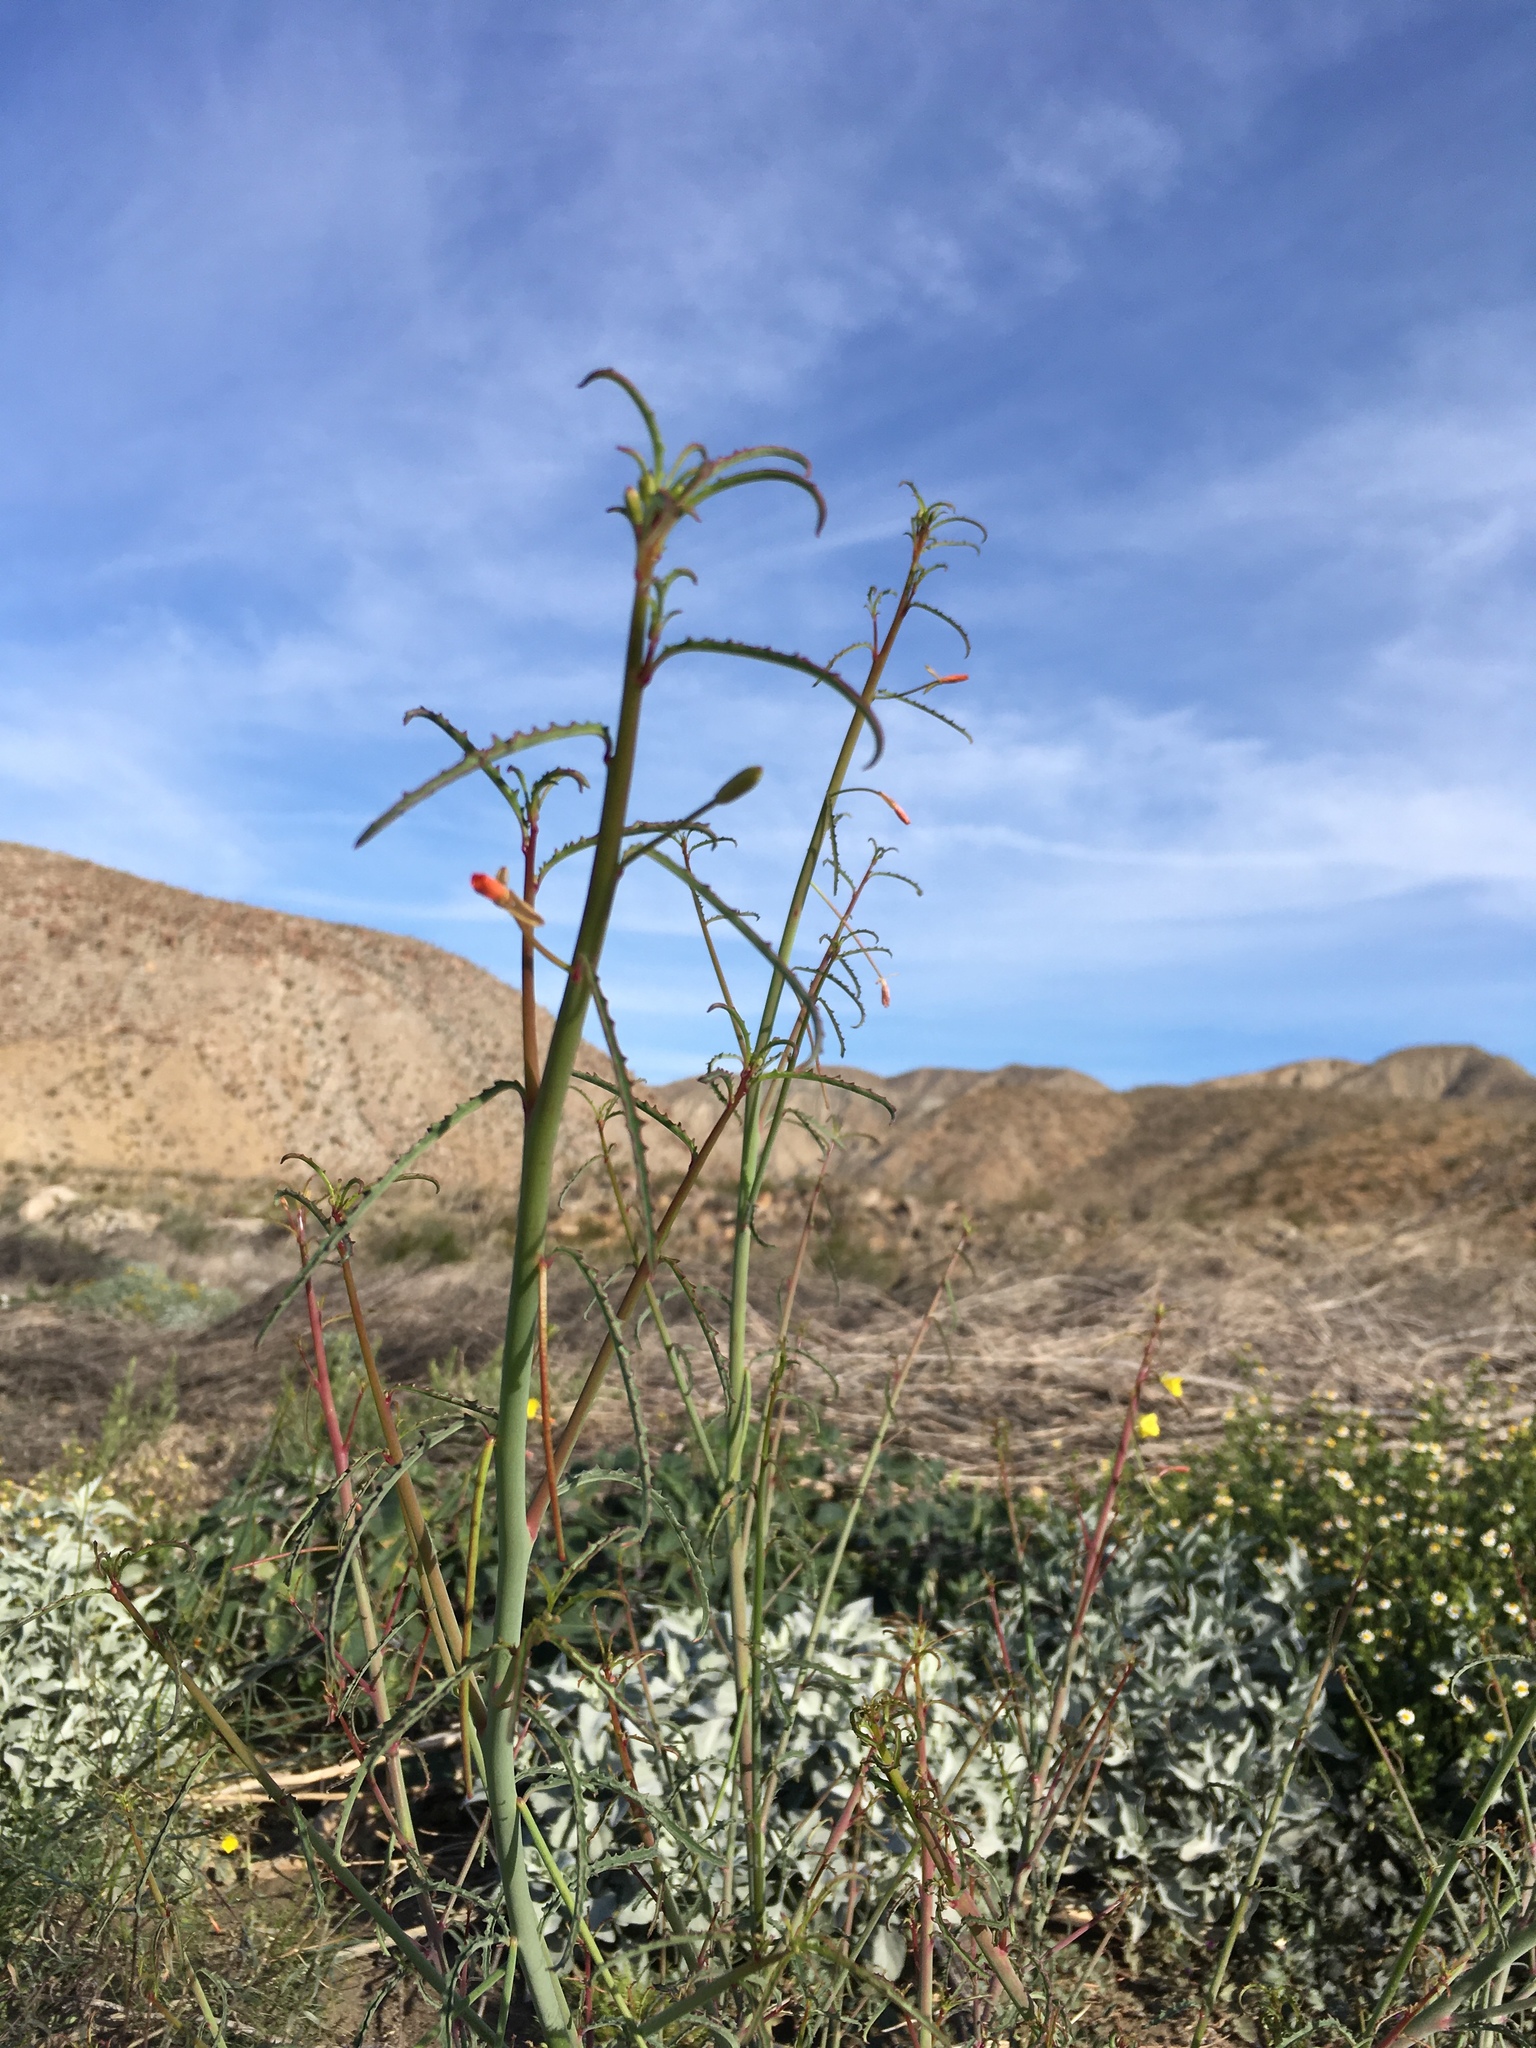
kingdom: Plantae
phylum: Tracheophyta
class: Magnoliopsida
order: Myrtales
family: Onagraceae
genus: Eulobus
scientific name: Eulobus californicus
